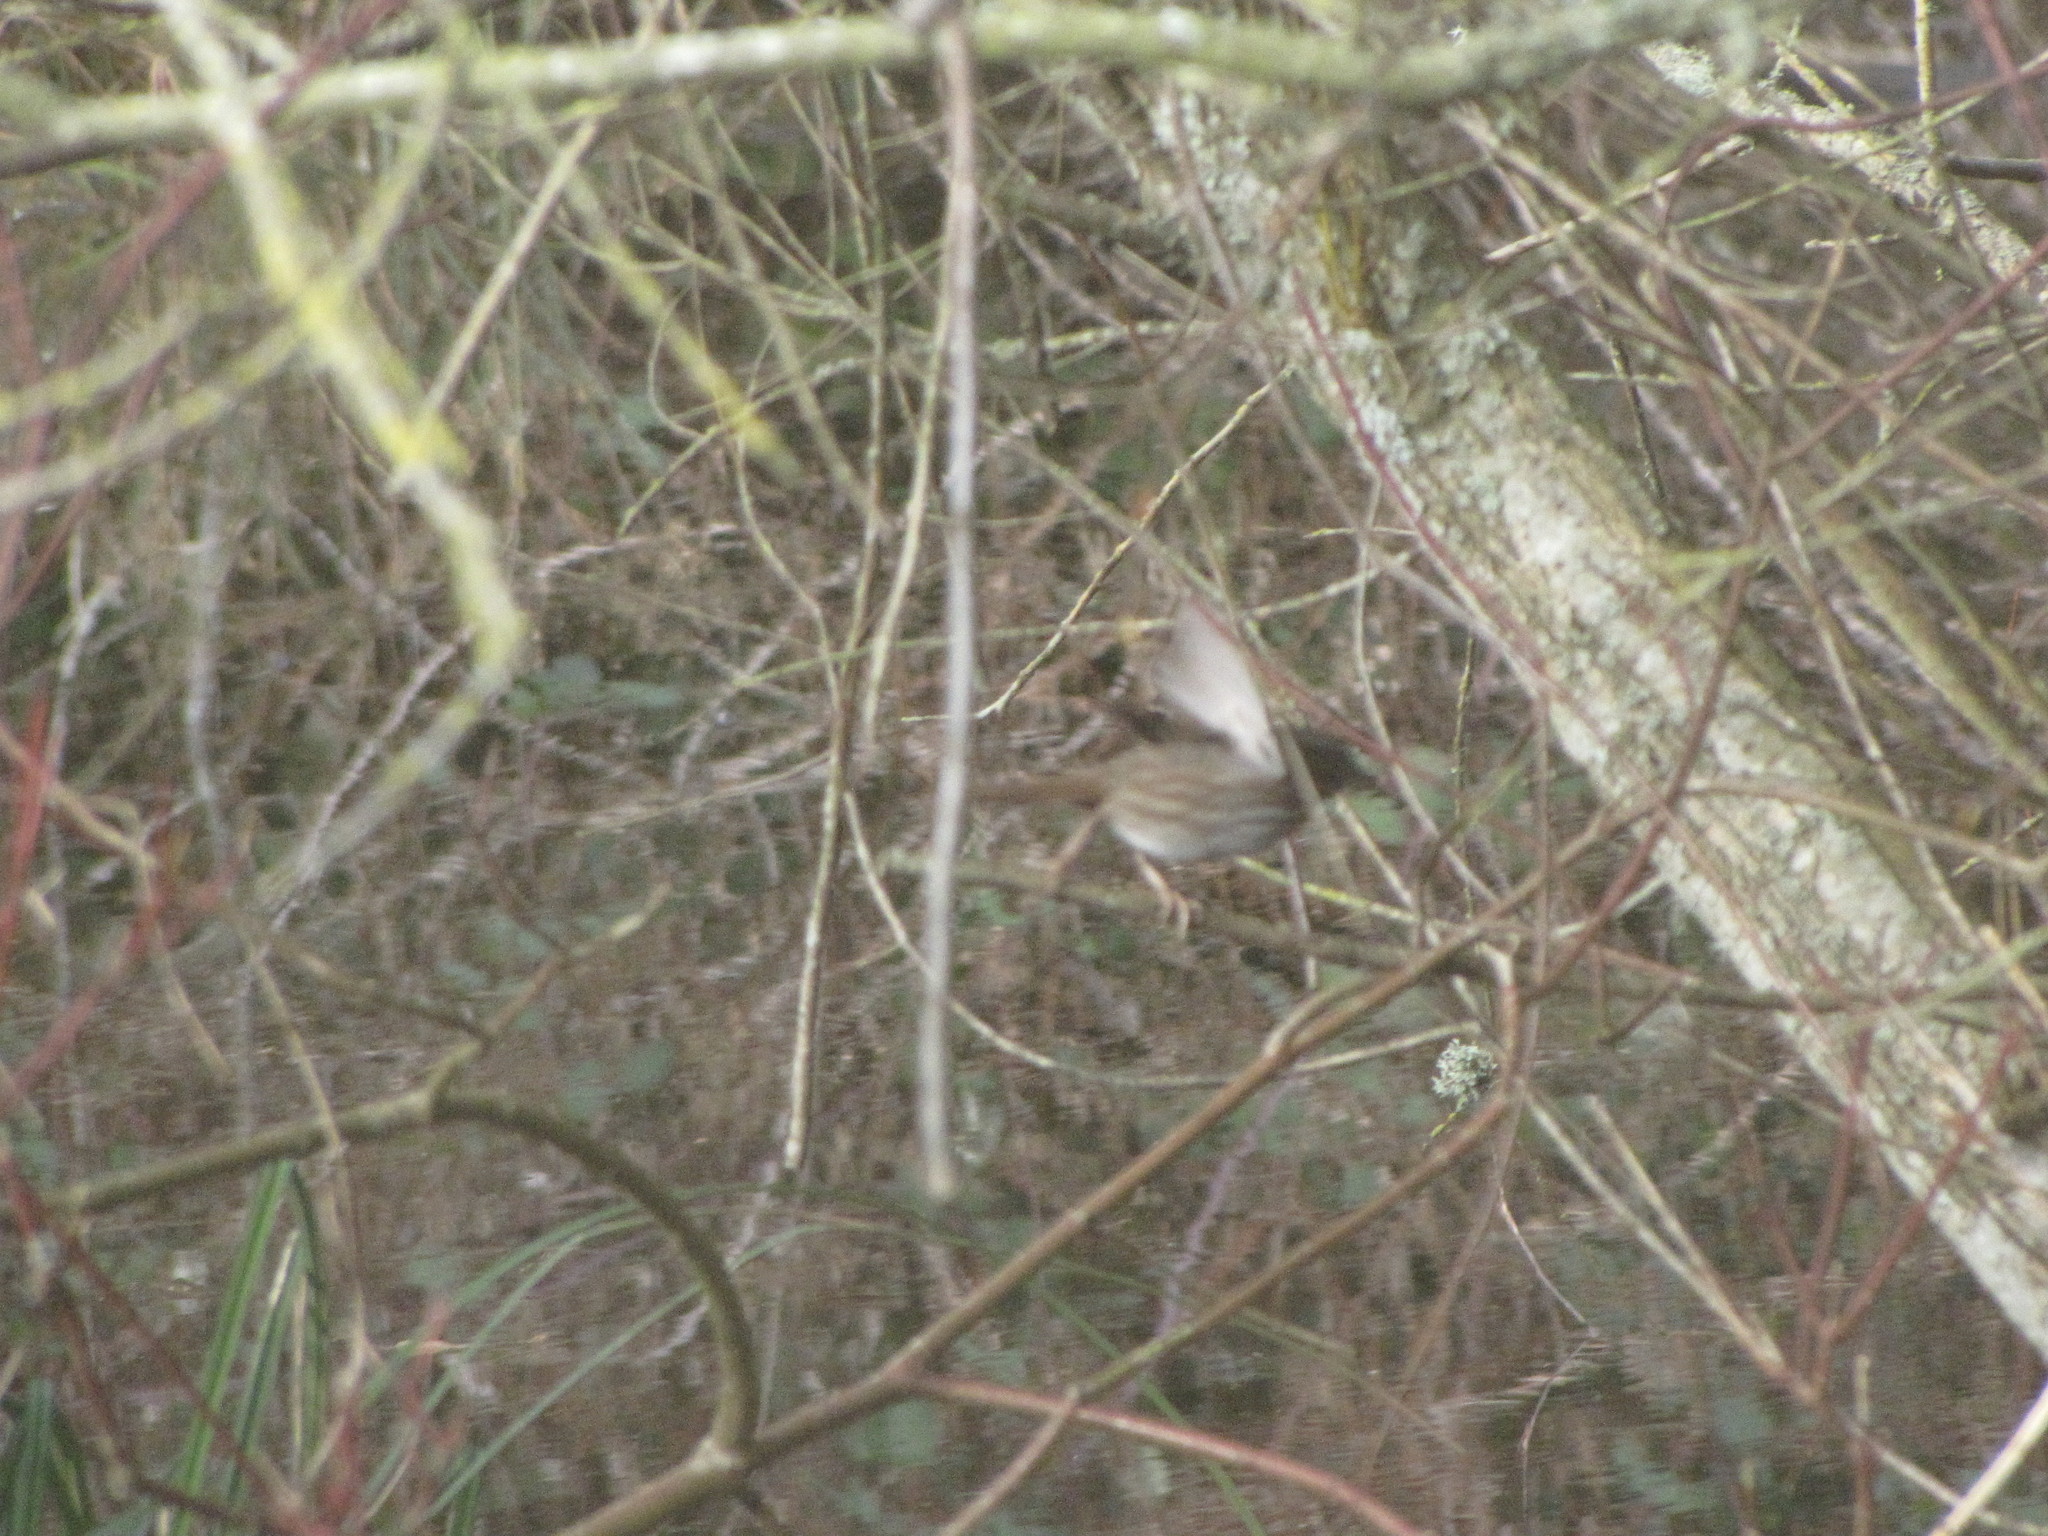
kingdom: Animalia
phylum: Chordata
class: Aves
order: Passeriformes
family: Passerellidae
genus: Melospiza
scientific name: Melospiza melodia
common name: Song sparrow
